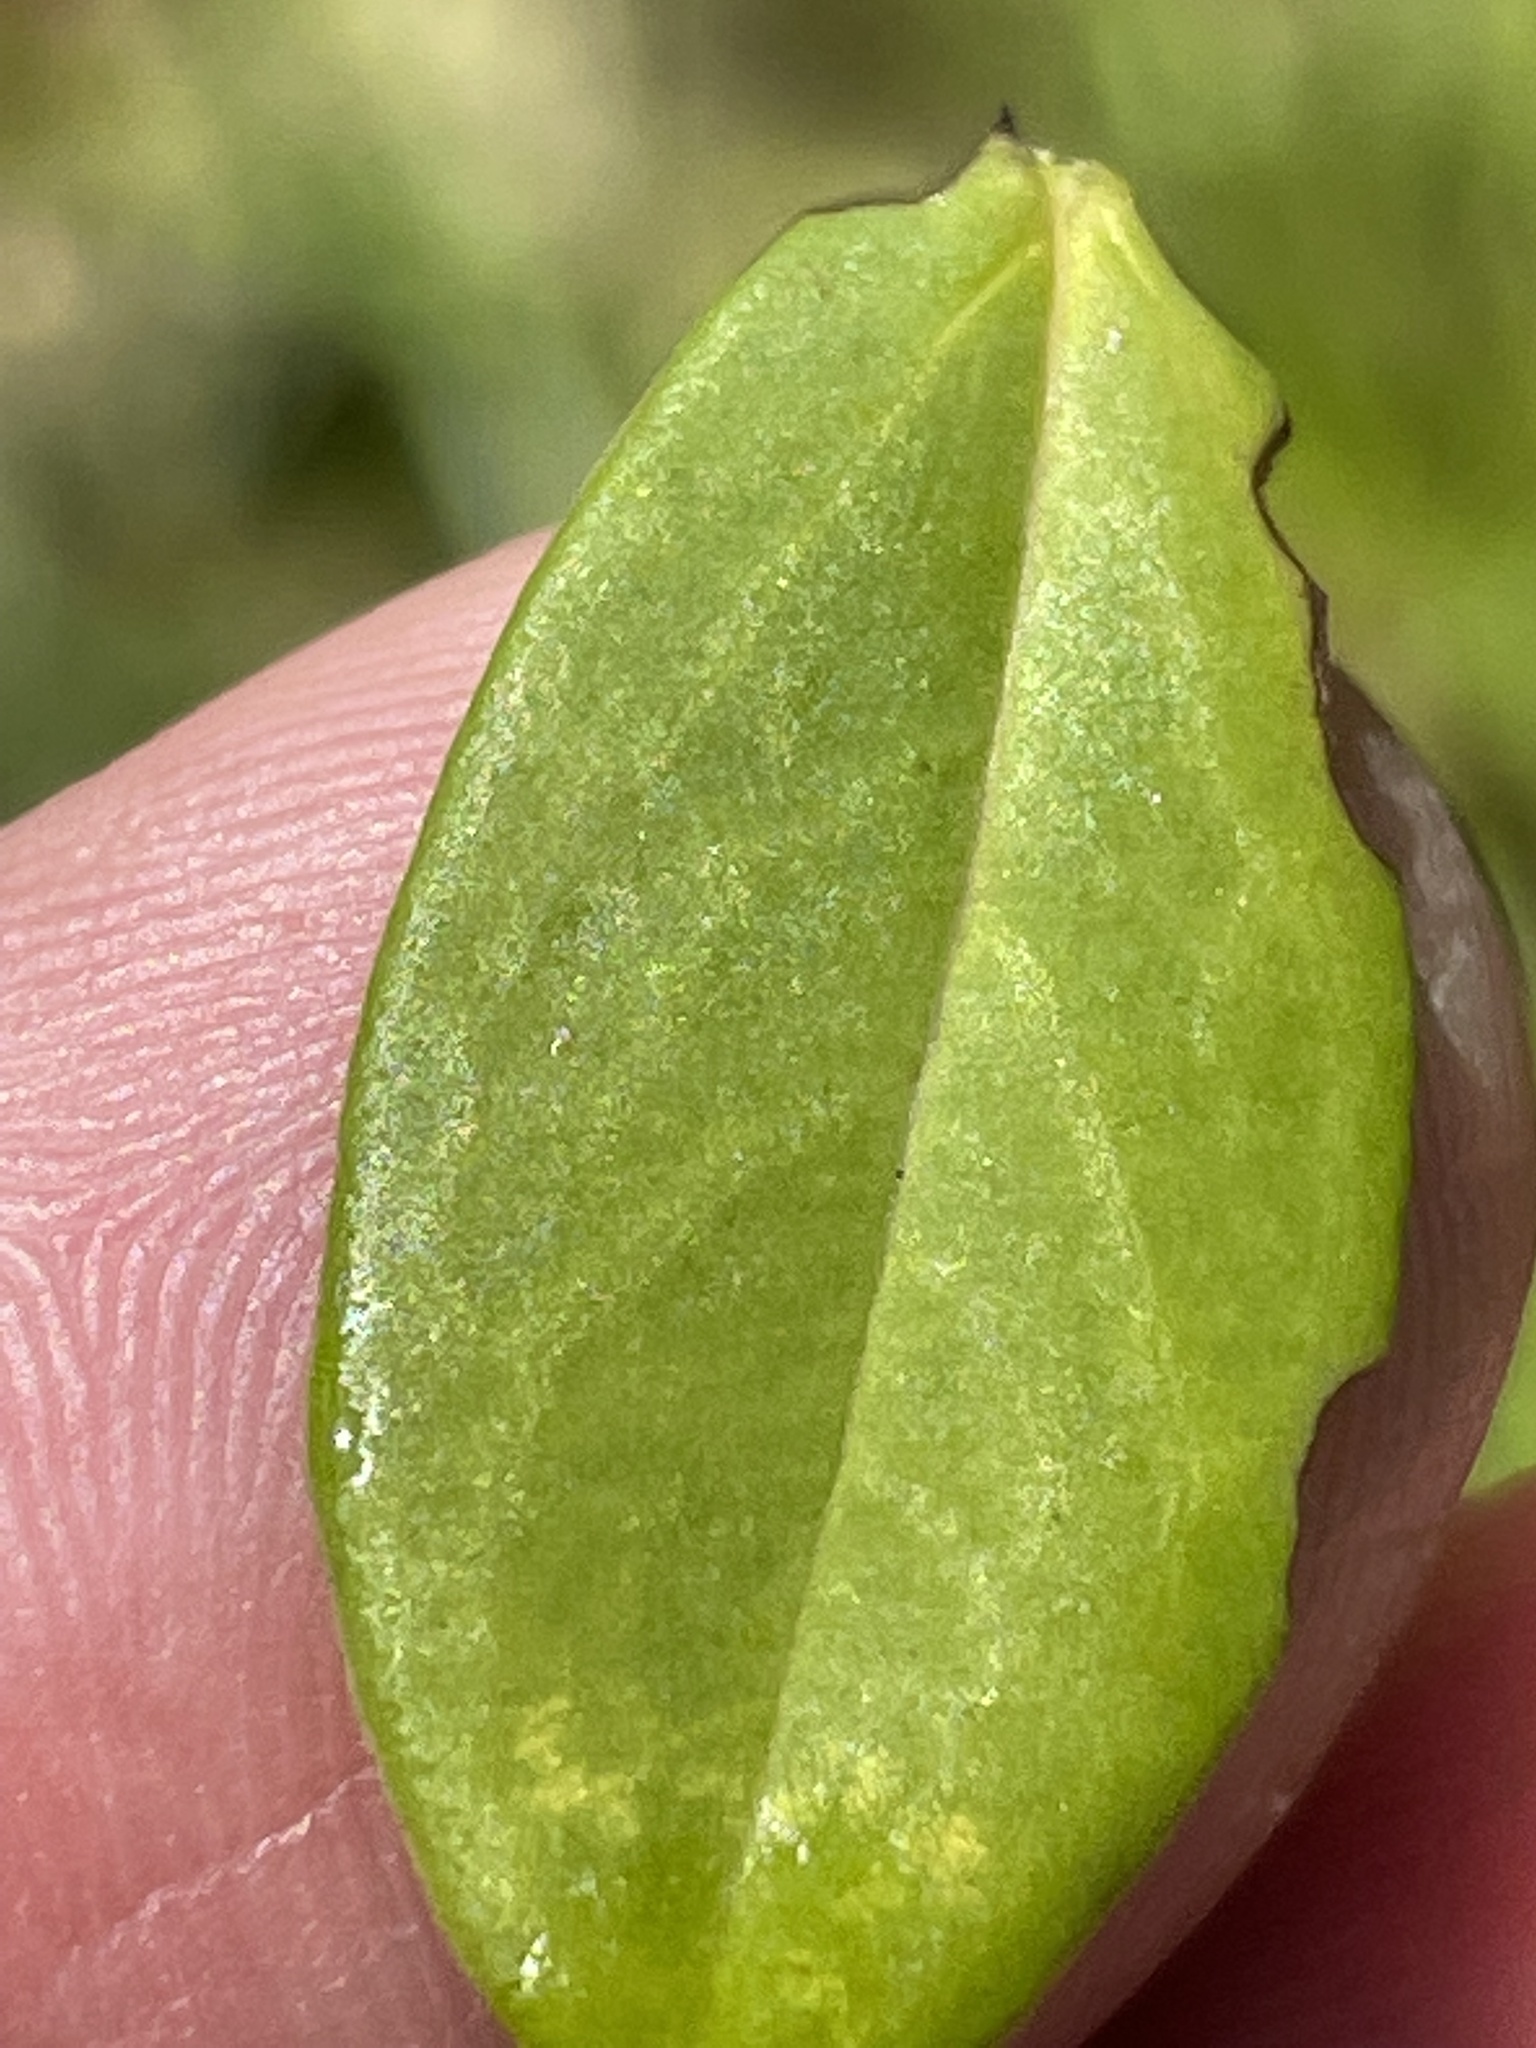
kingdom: Plantae
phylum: Tracheophyta
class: Magnoliopsida
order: Malpighiales
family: Hypericaceae
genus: Hypericum
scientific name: Hypericum crux-andreae
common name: St.-peter's-wort
